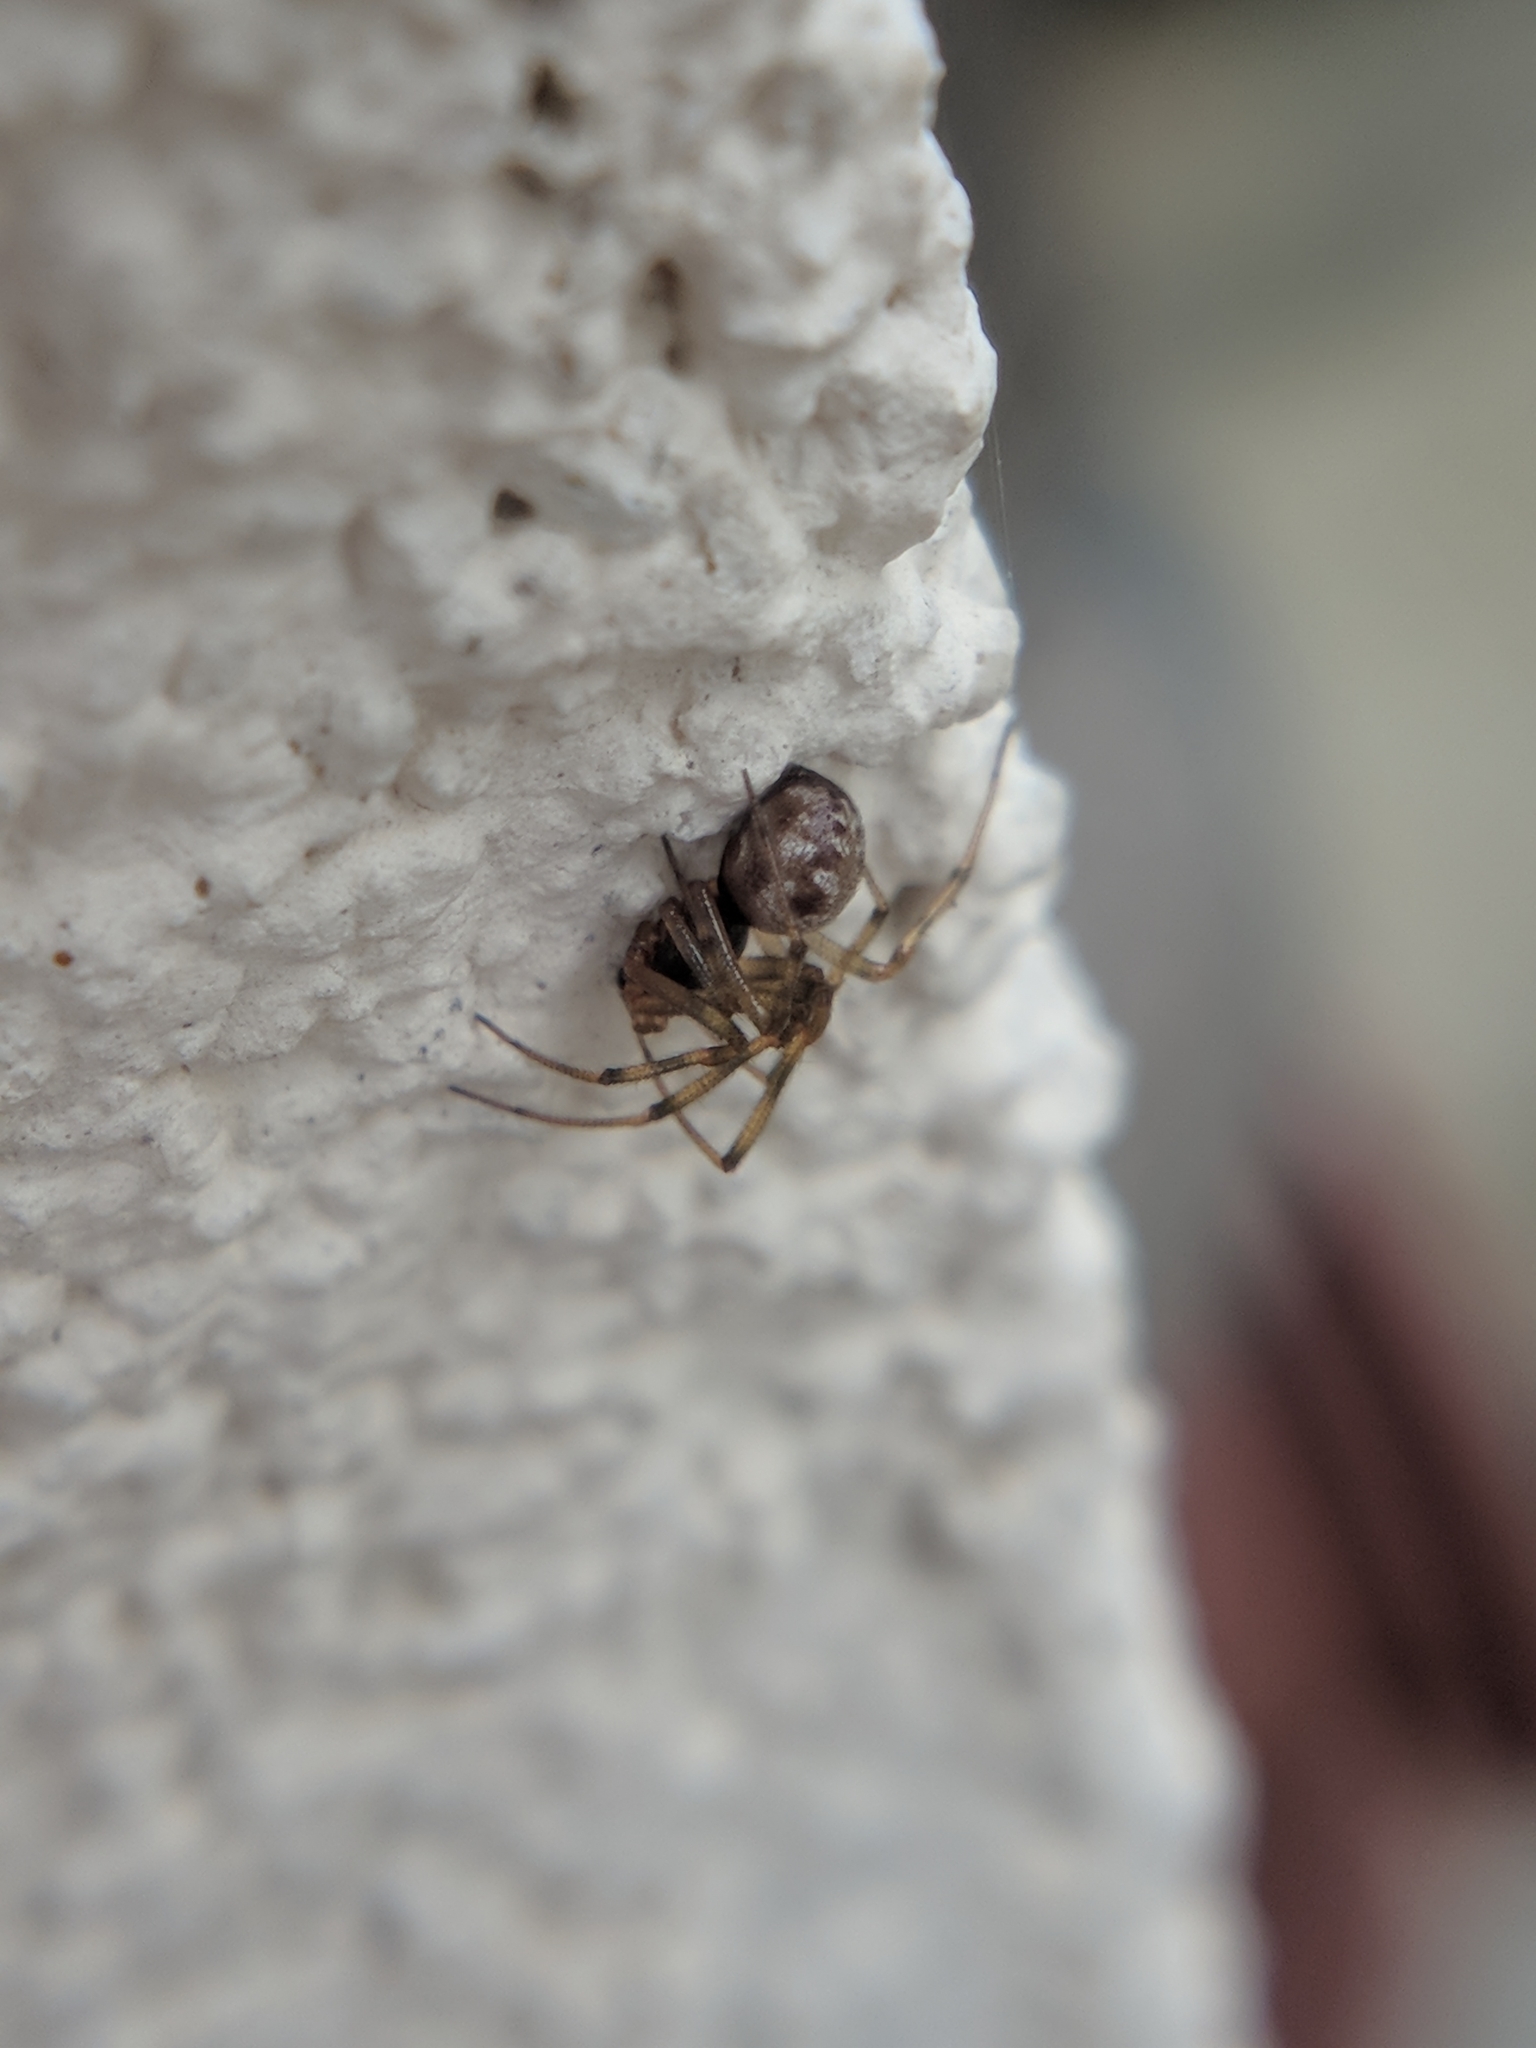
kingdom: Animalia
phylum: Arthropoda
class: Arachnida
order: Araneae
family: Theridiidae
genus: Steatoda
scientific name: Steatoda triangulosa
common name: Triangulate bud spider
